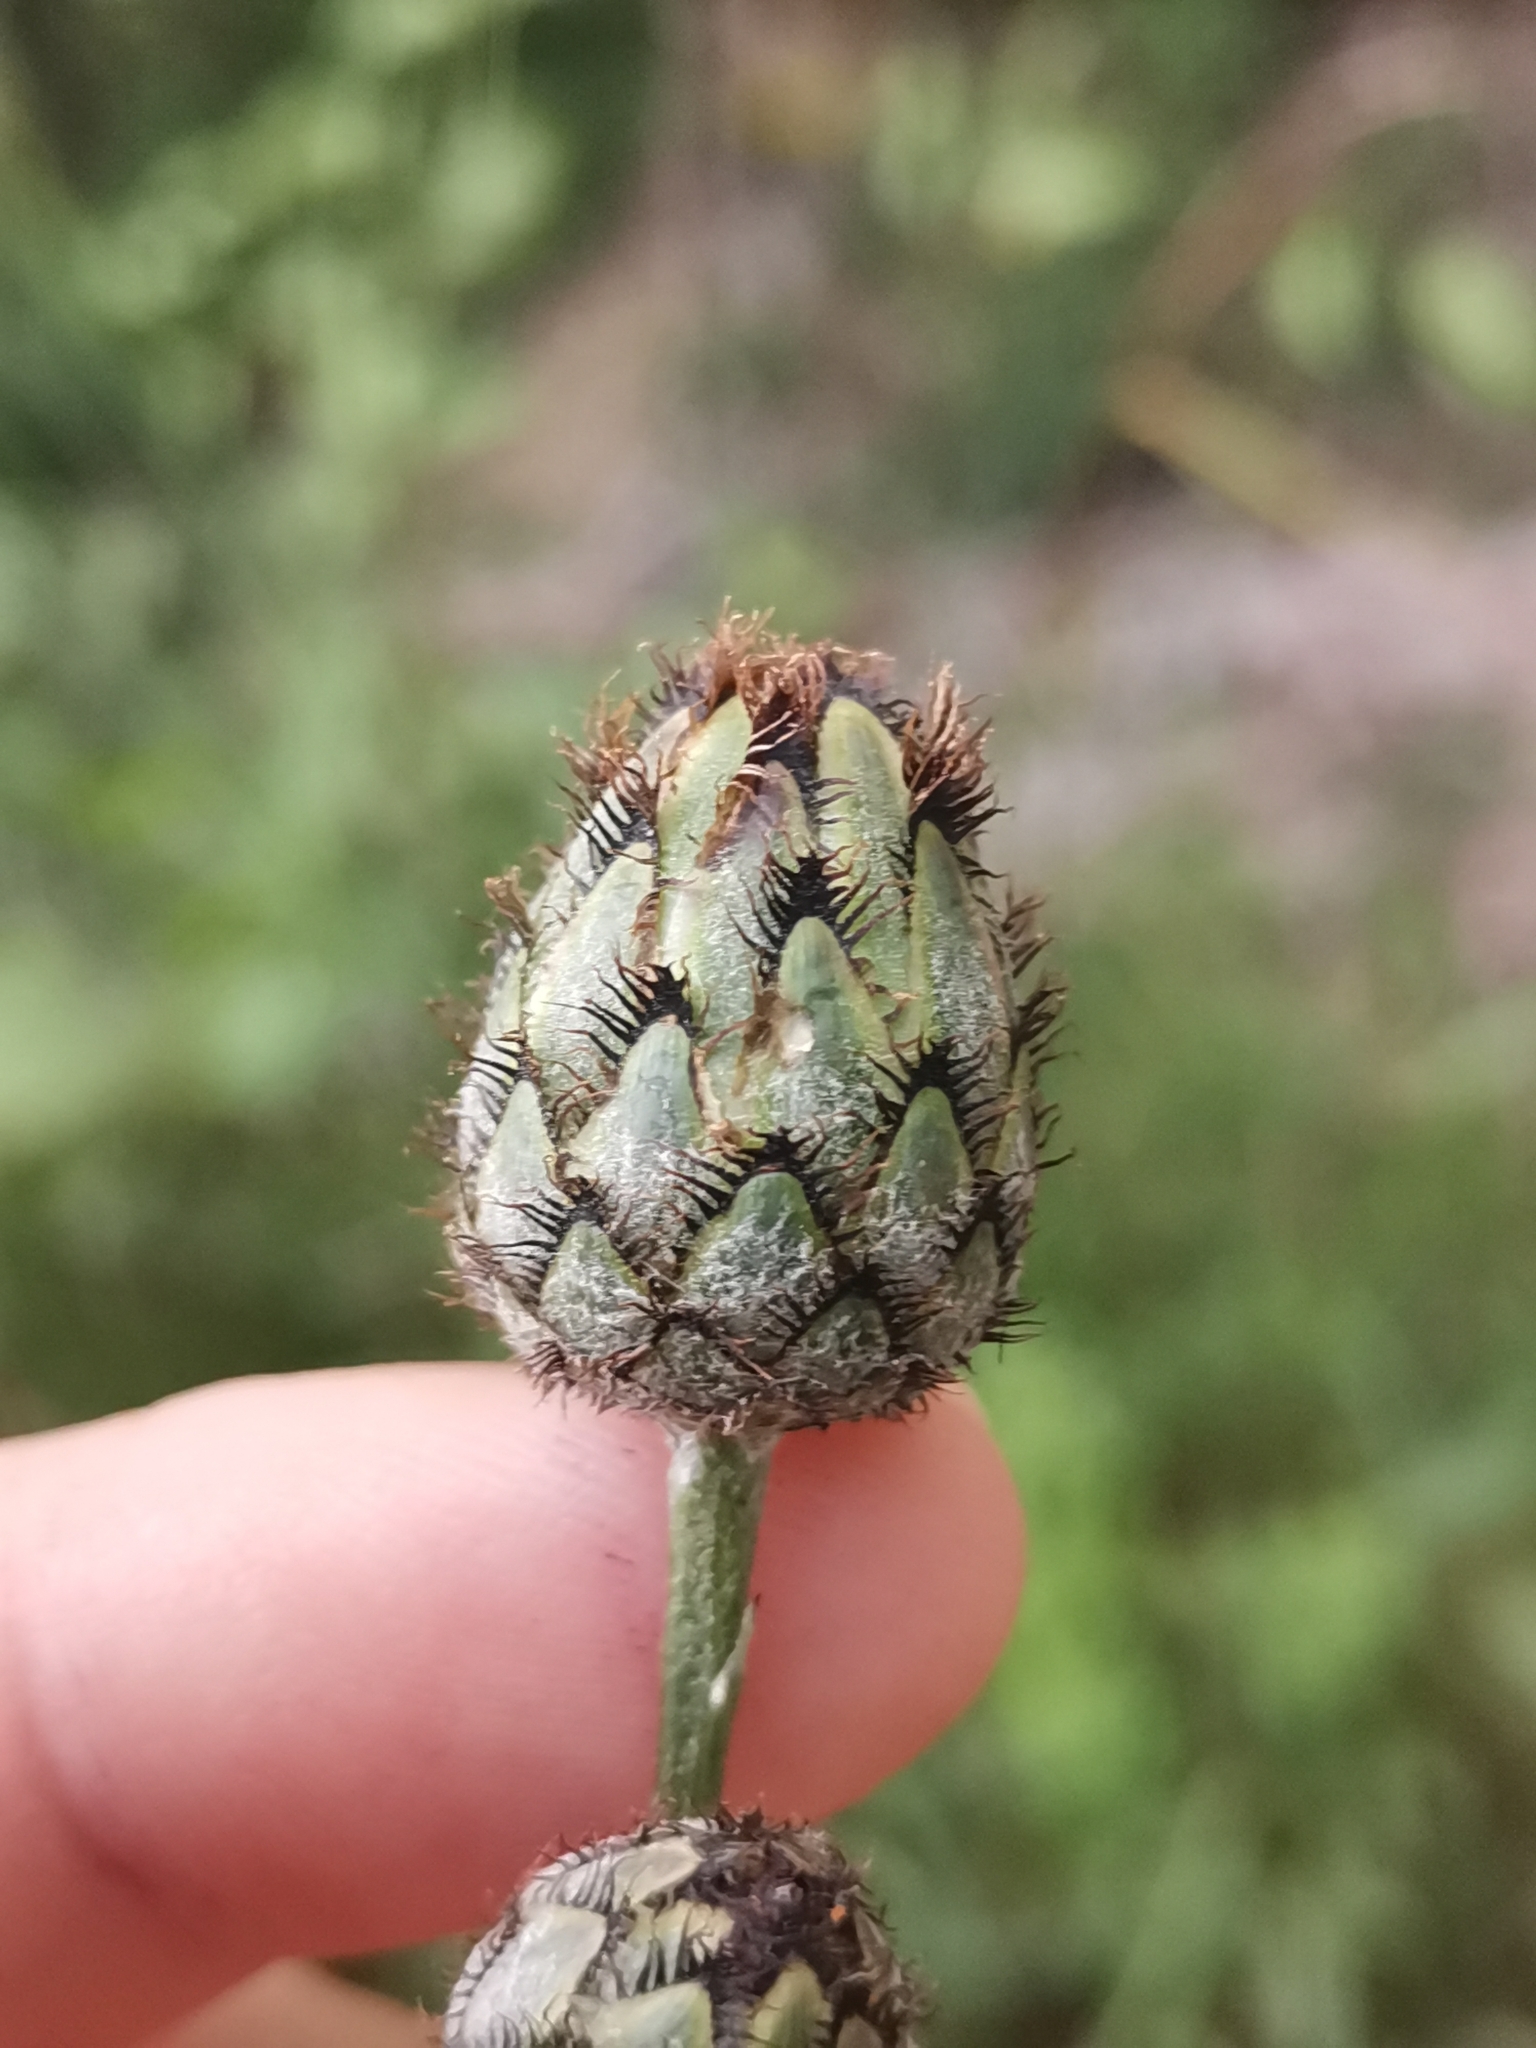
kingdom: Plantae
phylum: Tracheophyta
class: Magnoliopsida
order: Asterales
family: Asteraceae
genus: Centaurea
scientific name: Centaurea scabiosa
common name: Greater knapweed
